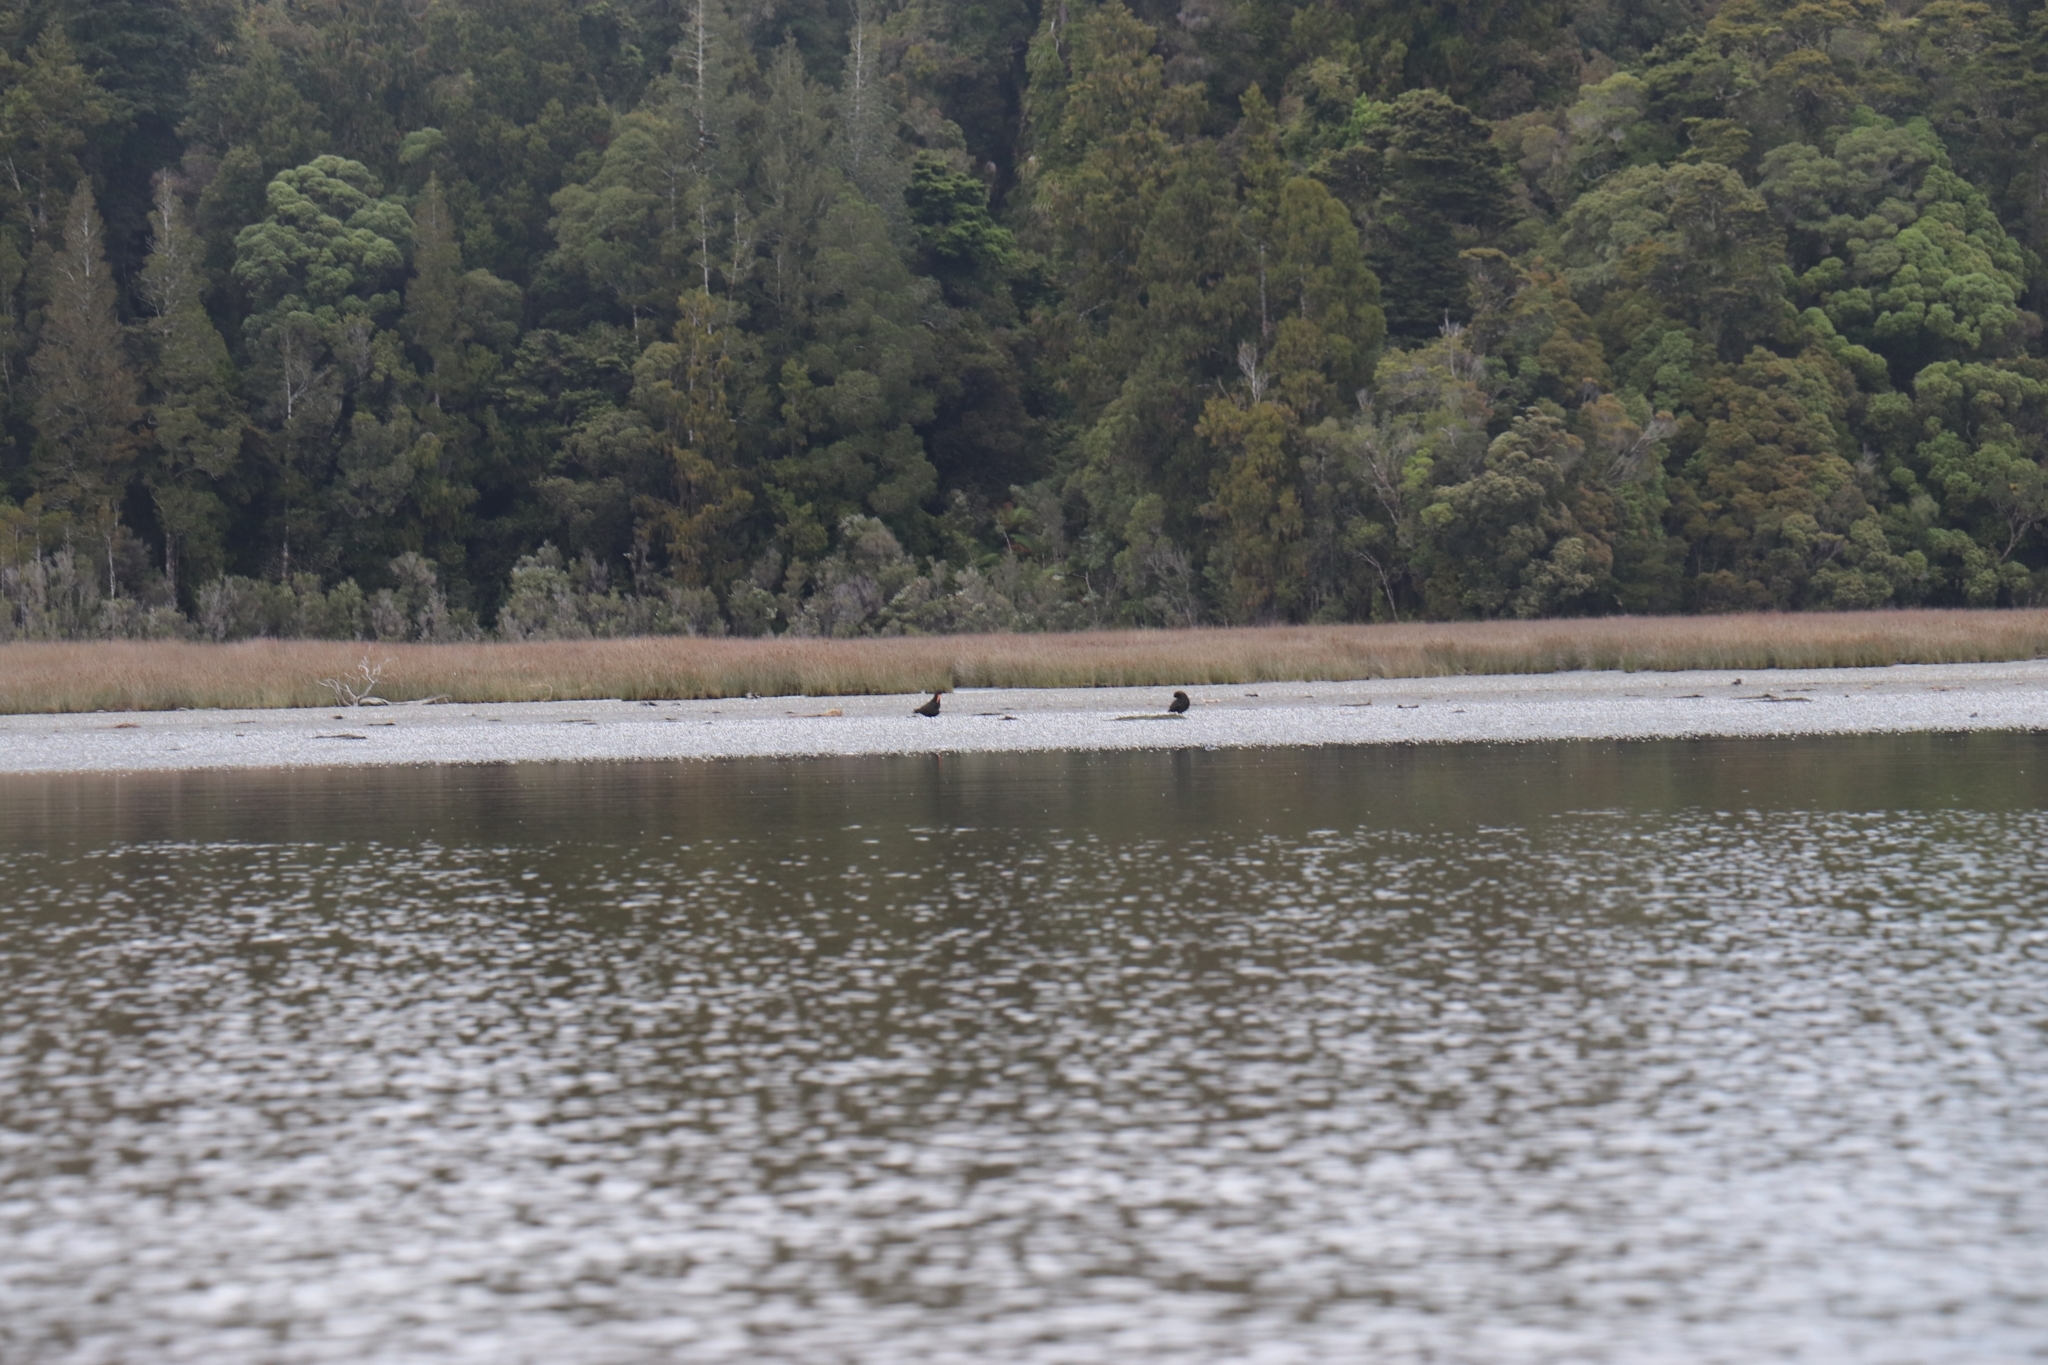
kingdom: Animalia
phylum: Chordata
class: Aves
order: Charadriiformes
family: Haematopodidae
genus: Haematopus
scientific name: Haematopus unicolor
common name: Variable oystercatcher
